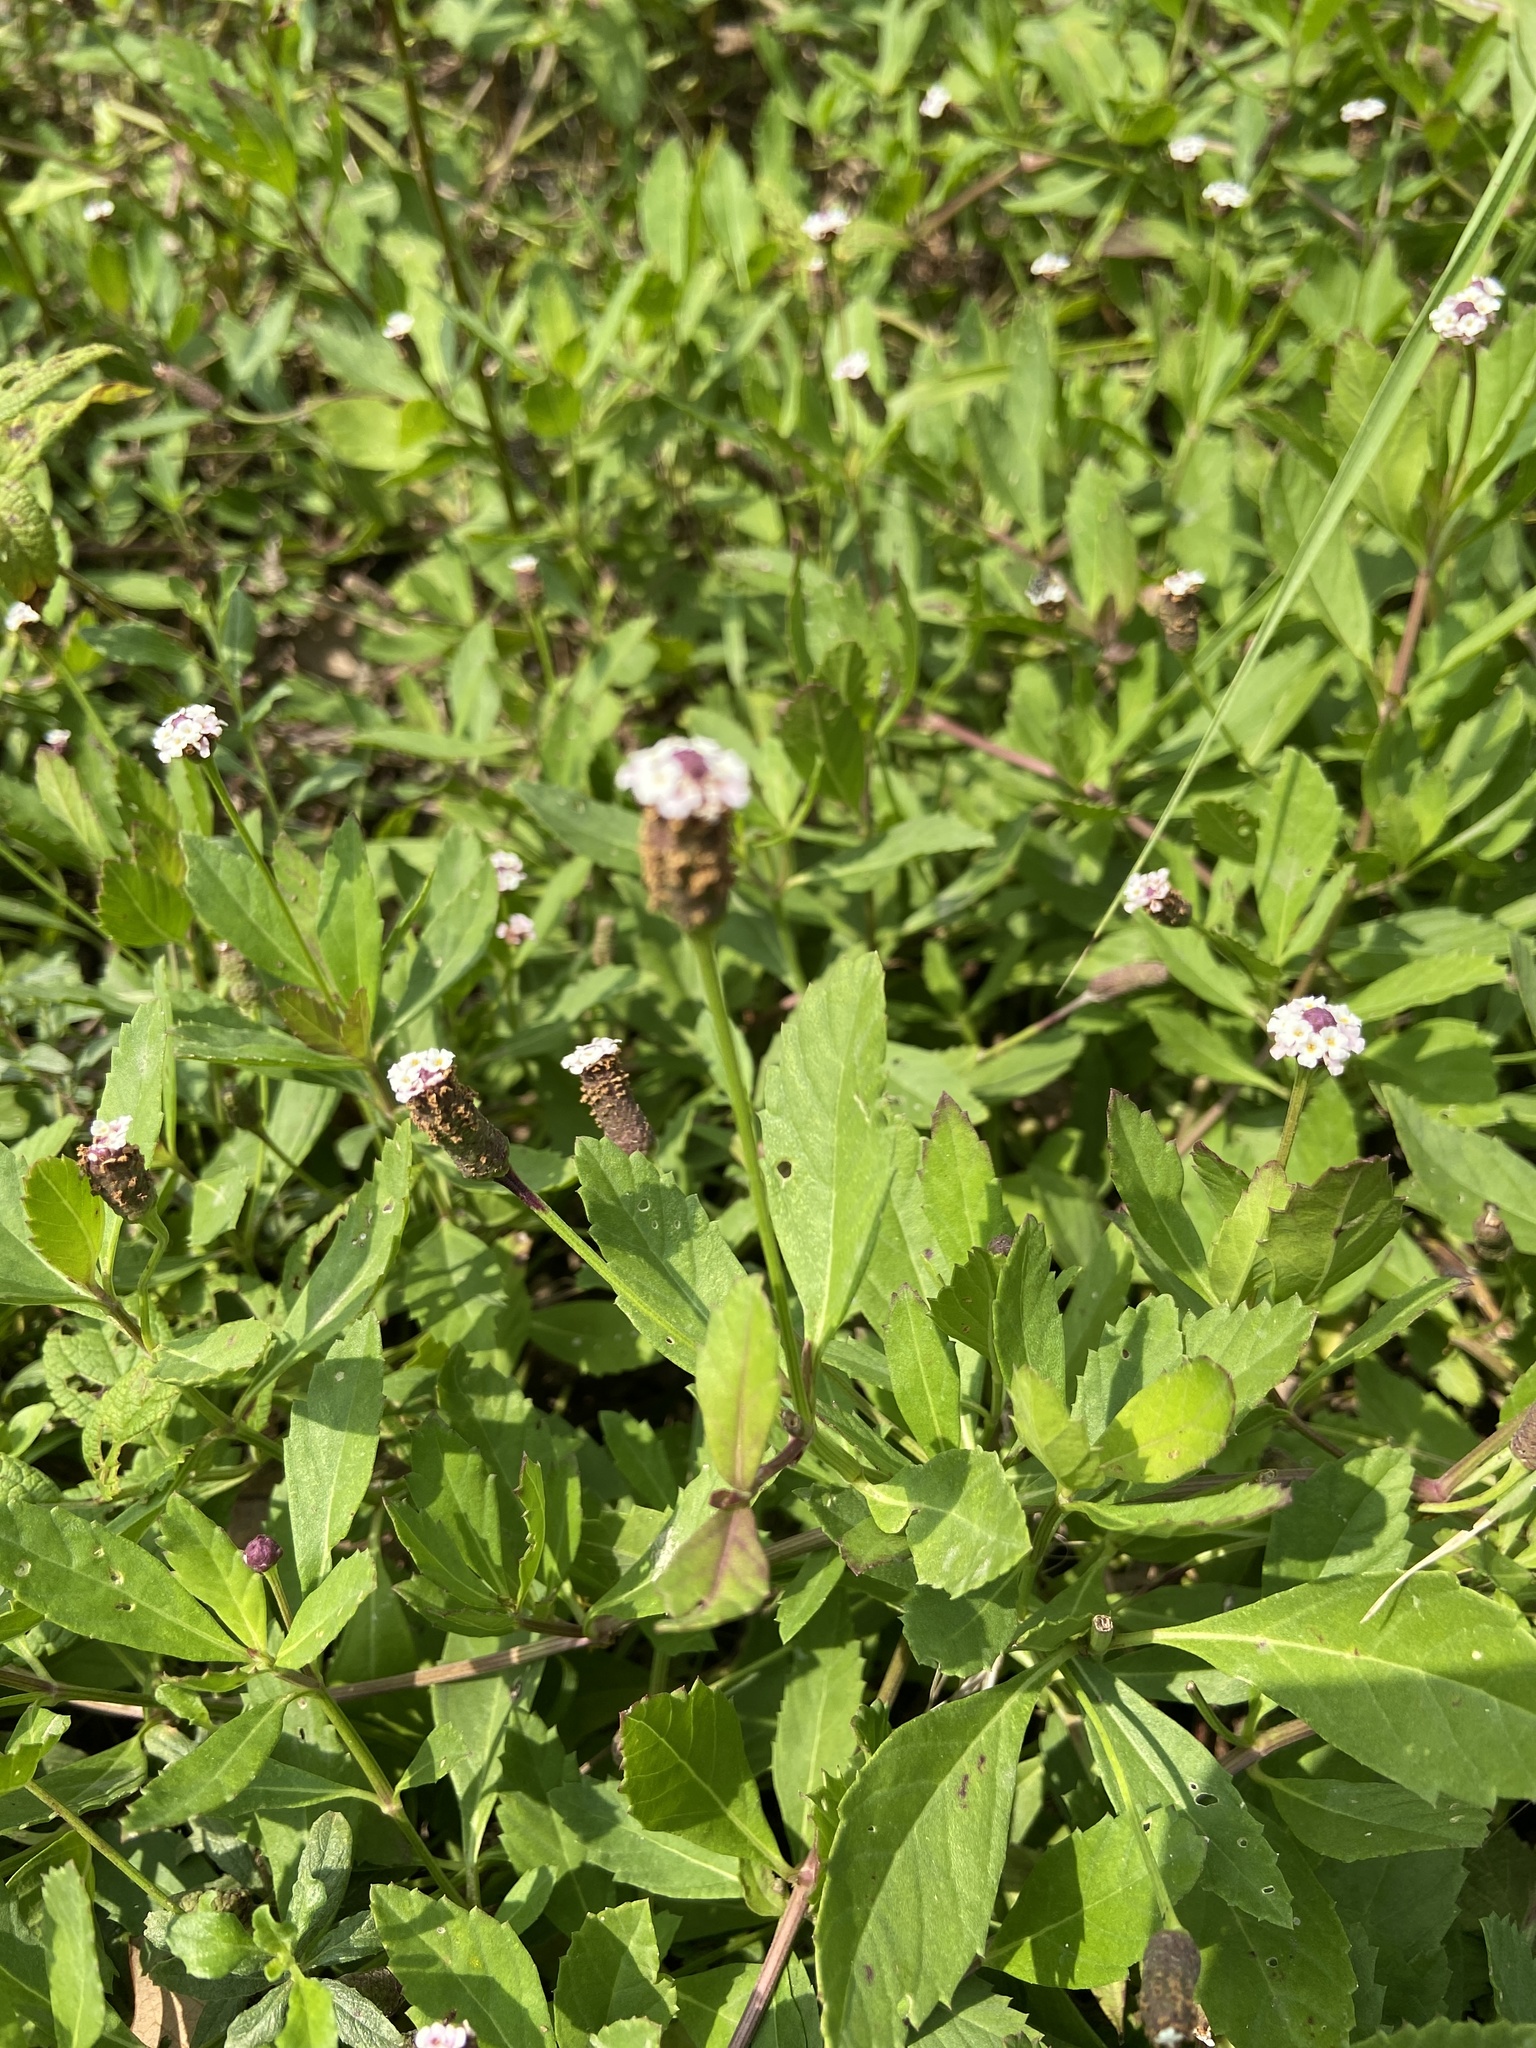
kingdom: Plantae
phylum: Tracheophyta
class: Magnoliopsida
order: Lamiales
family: Verbenaceae
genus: Phyla
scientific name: Phyla lanceolata
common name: Northern fogfruit
